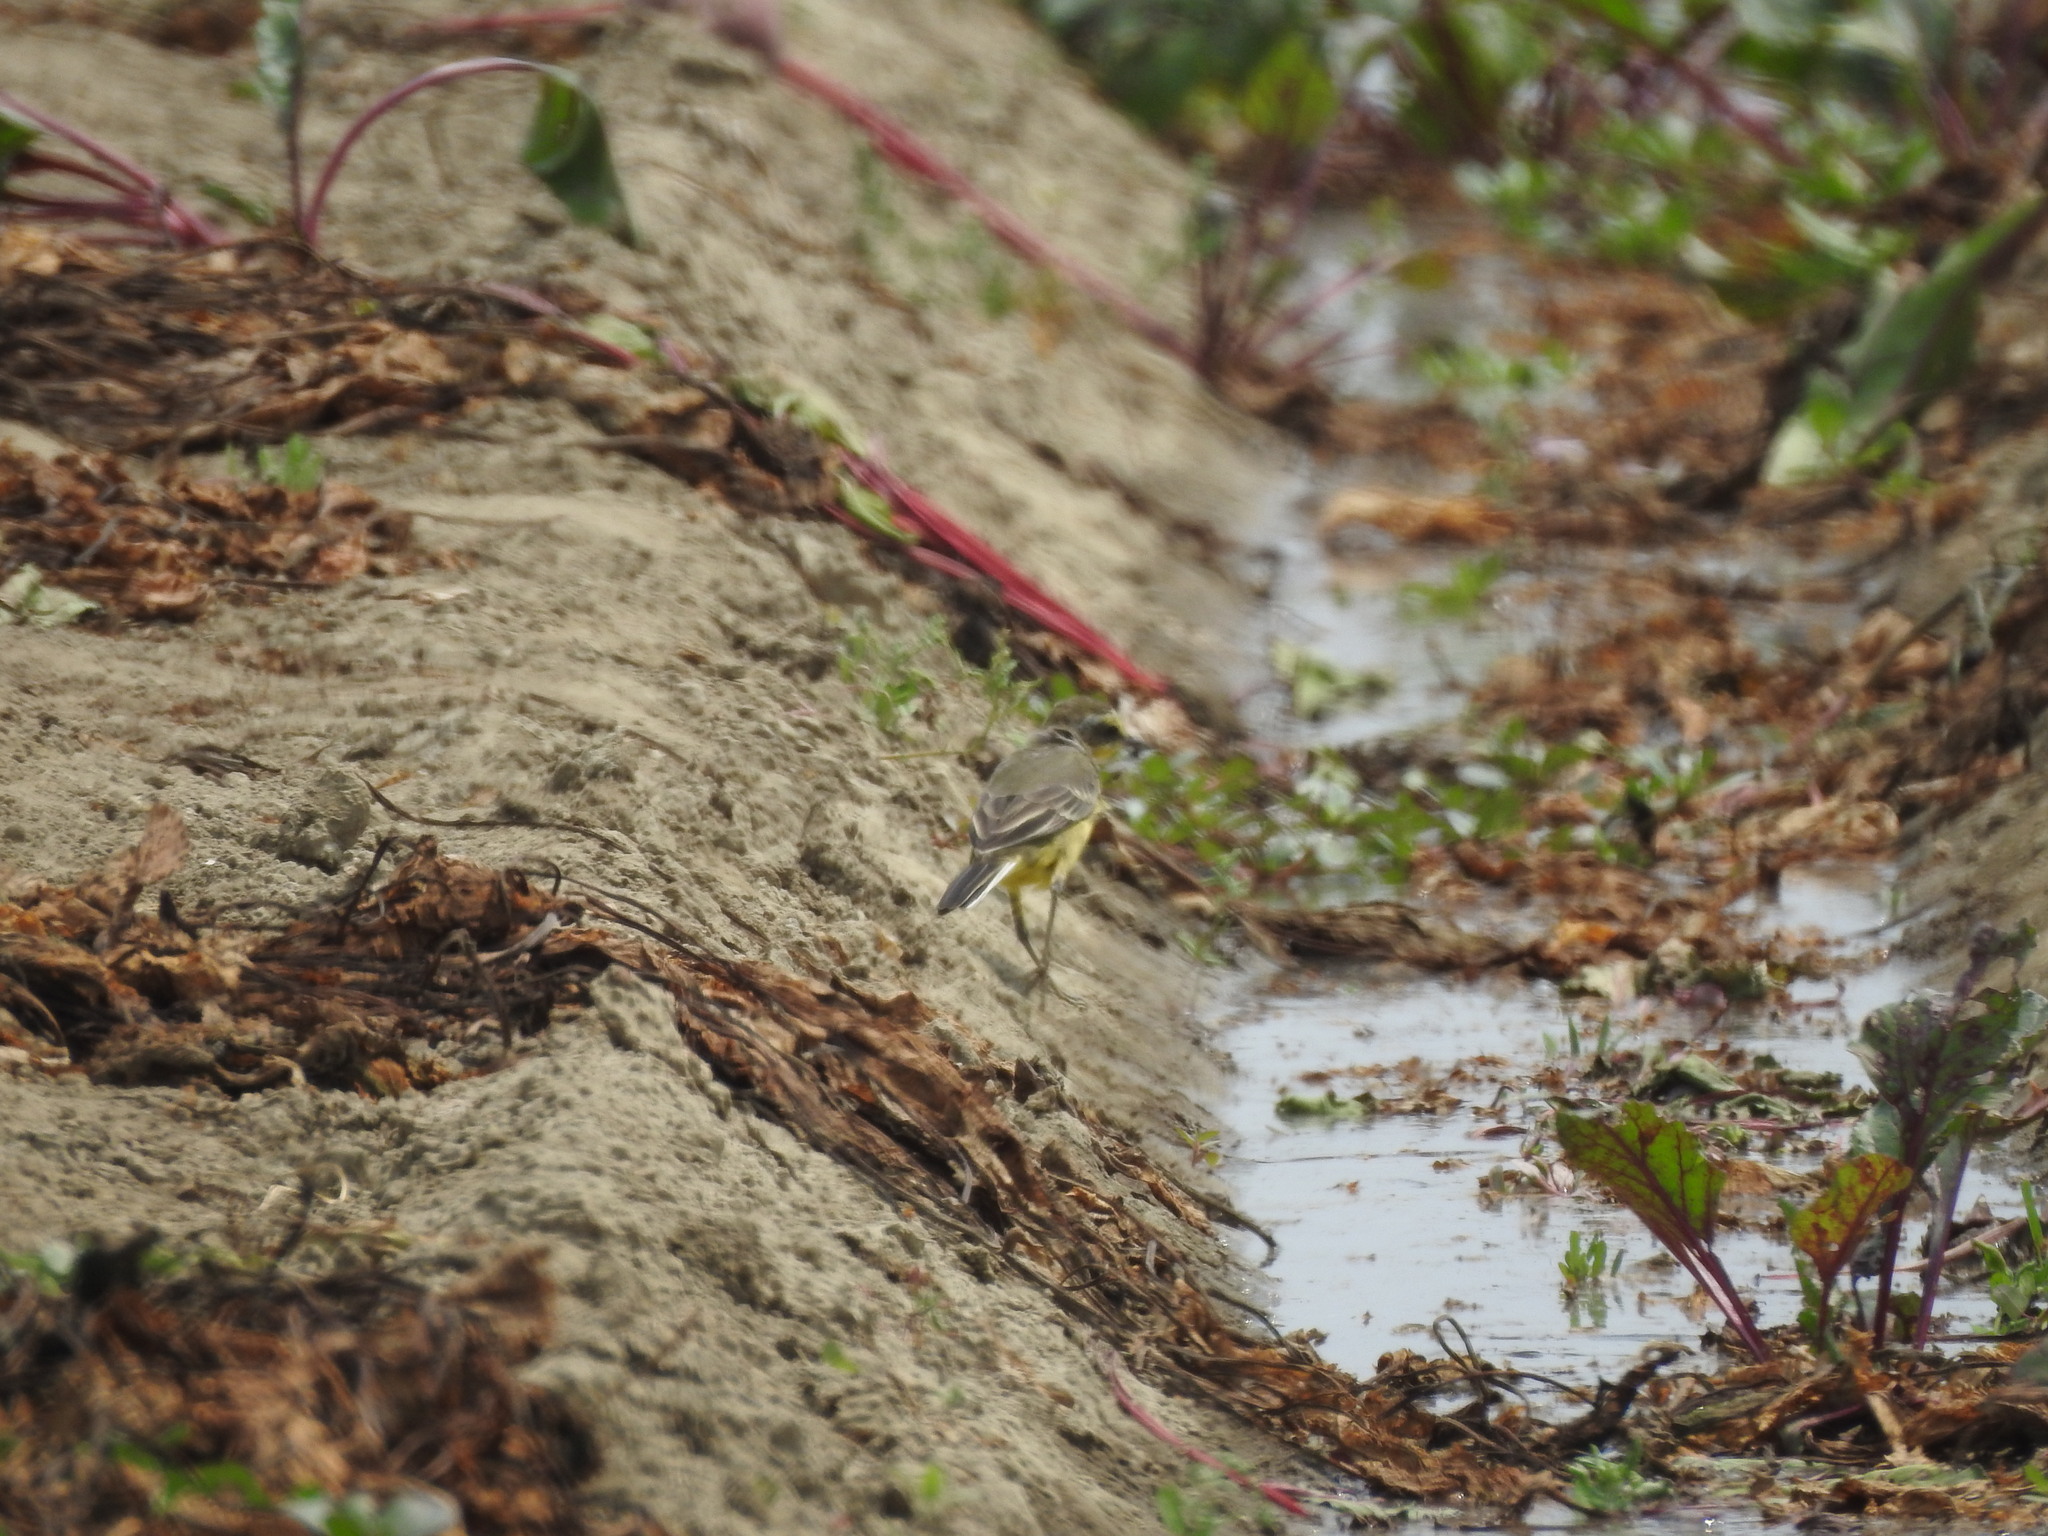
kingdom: Animalia
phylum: Chordata
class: Aves
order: Passeriformes
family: Motacillidae
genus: Motacilla
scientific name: Motacilla tschutschensis
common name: Eastern yellow wagtail
